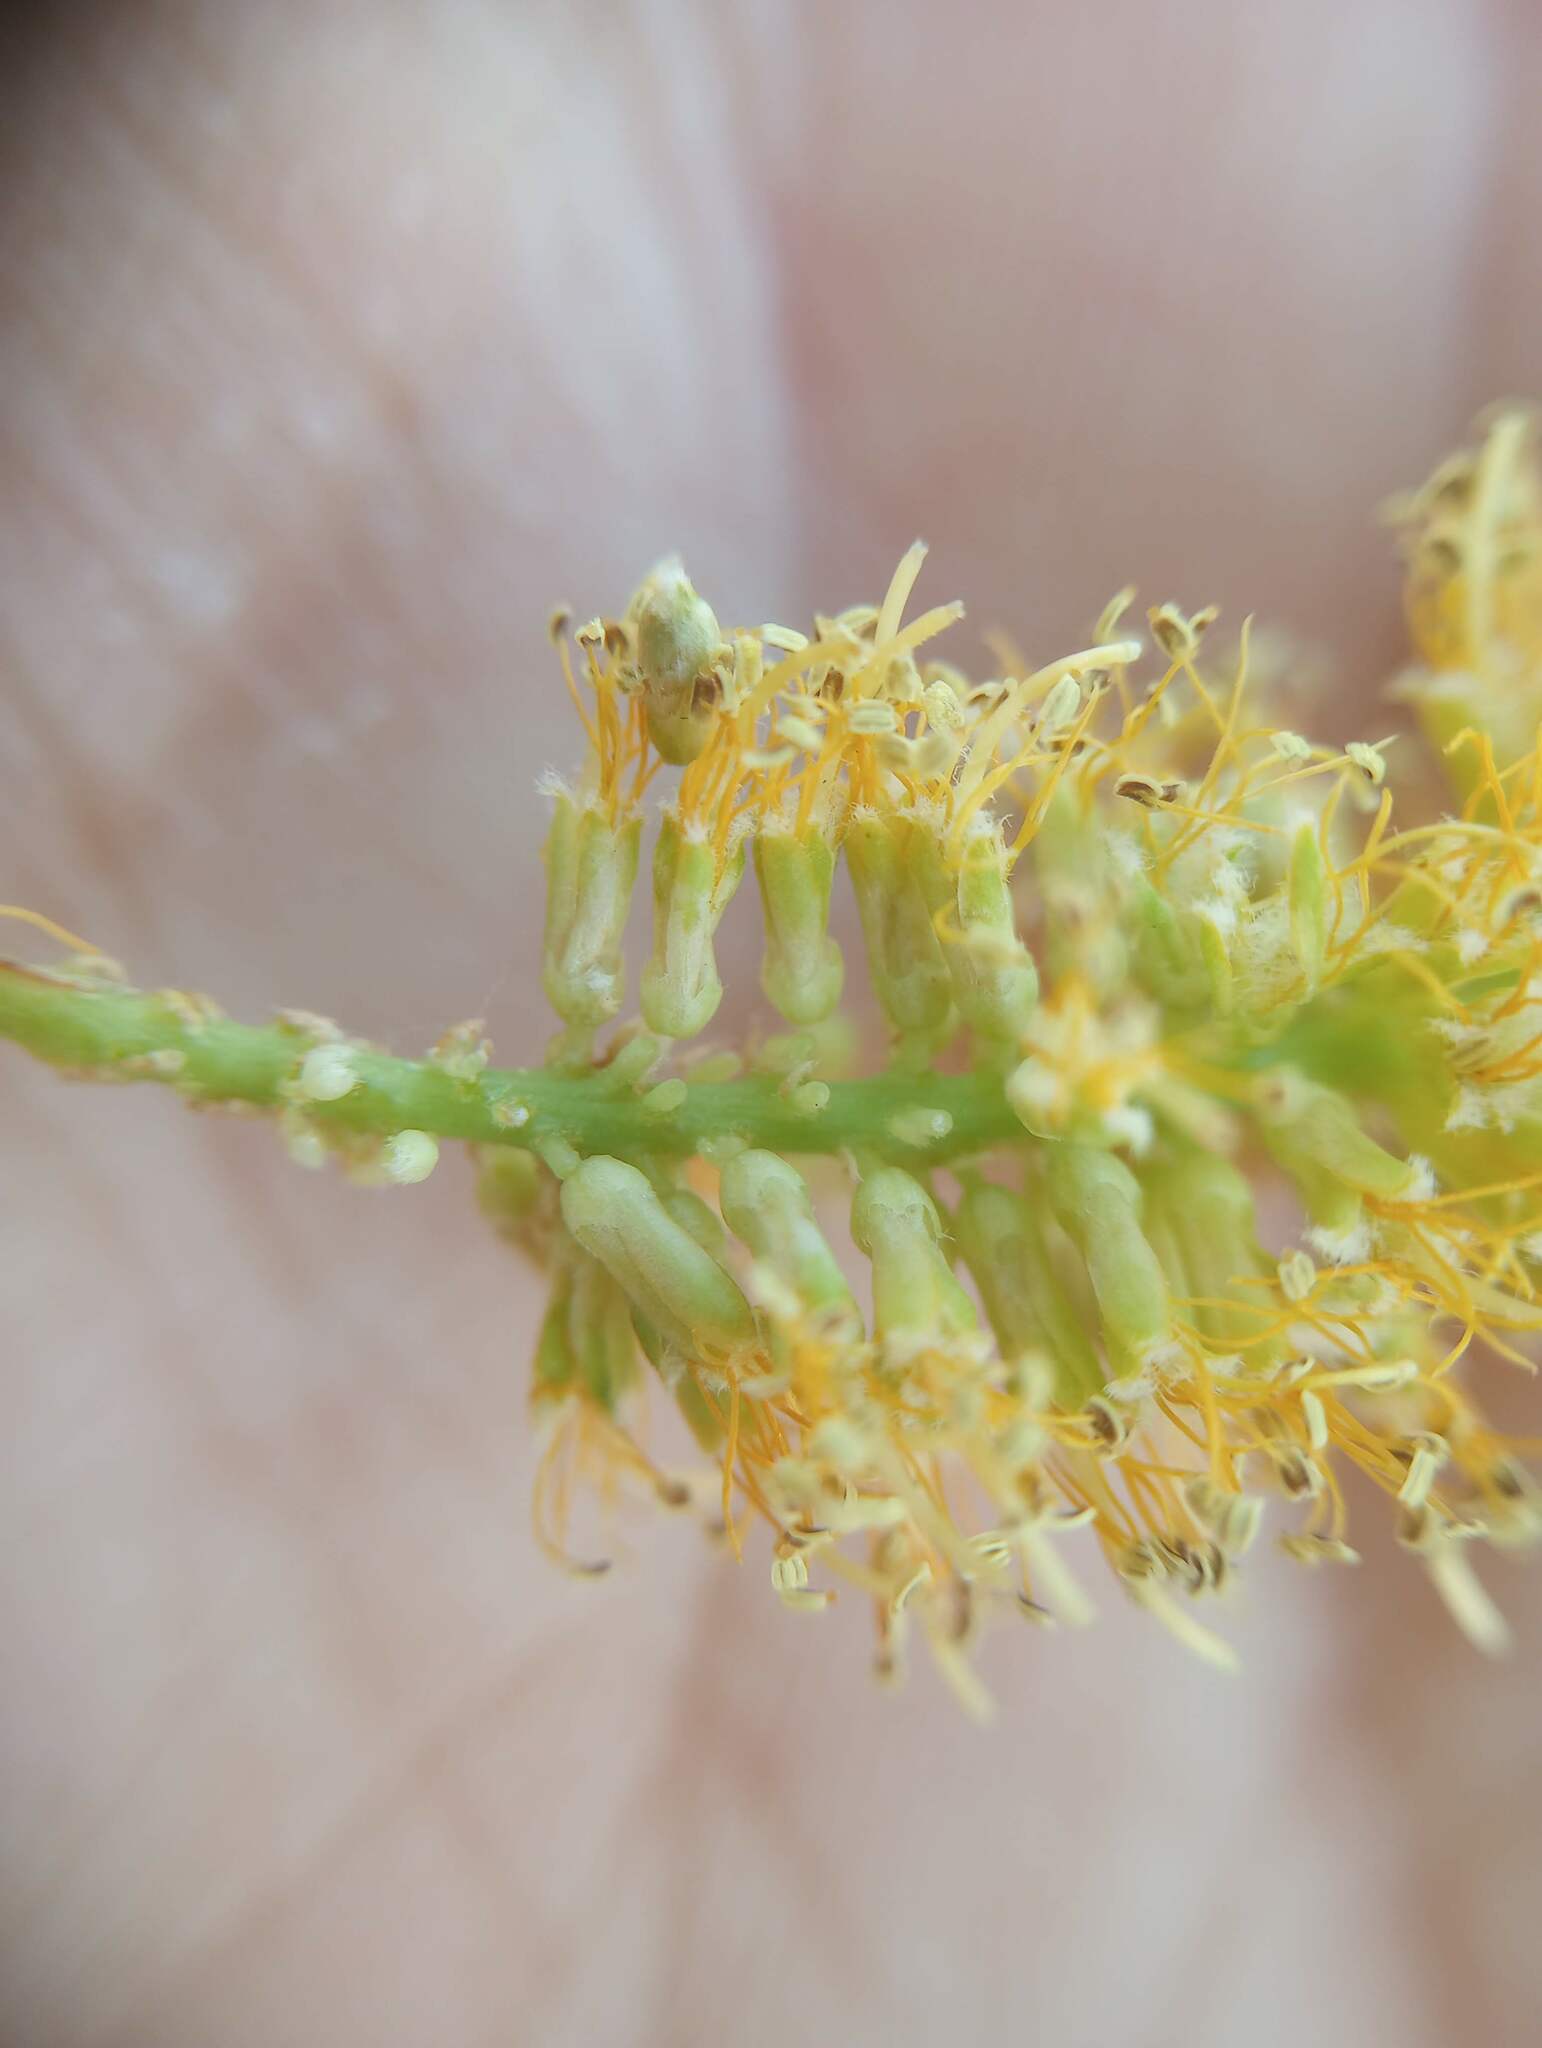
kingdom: Plantae
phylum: Tracheophyta
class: Magnoliopsida
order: Fabales
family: Fabaceae
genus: Prosopis
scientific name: Prosopis glandulosa
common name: Honey mesquite
